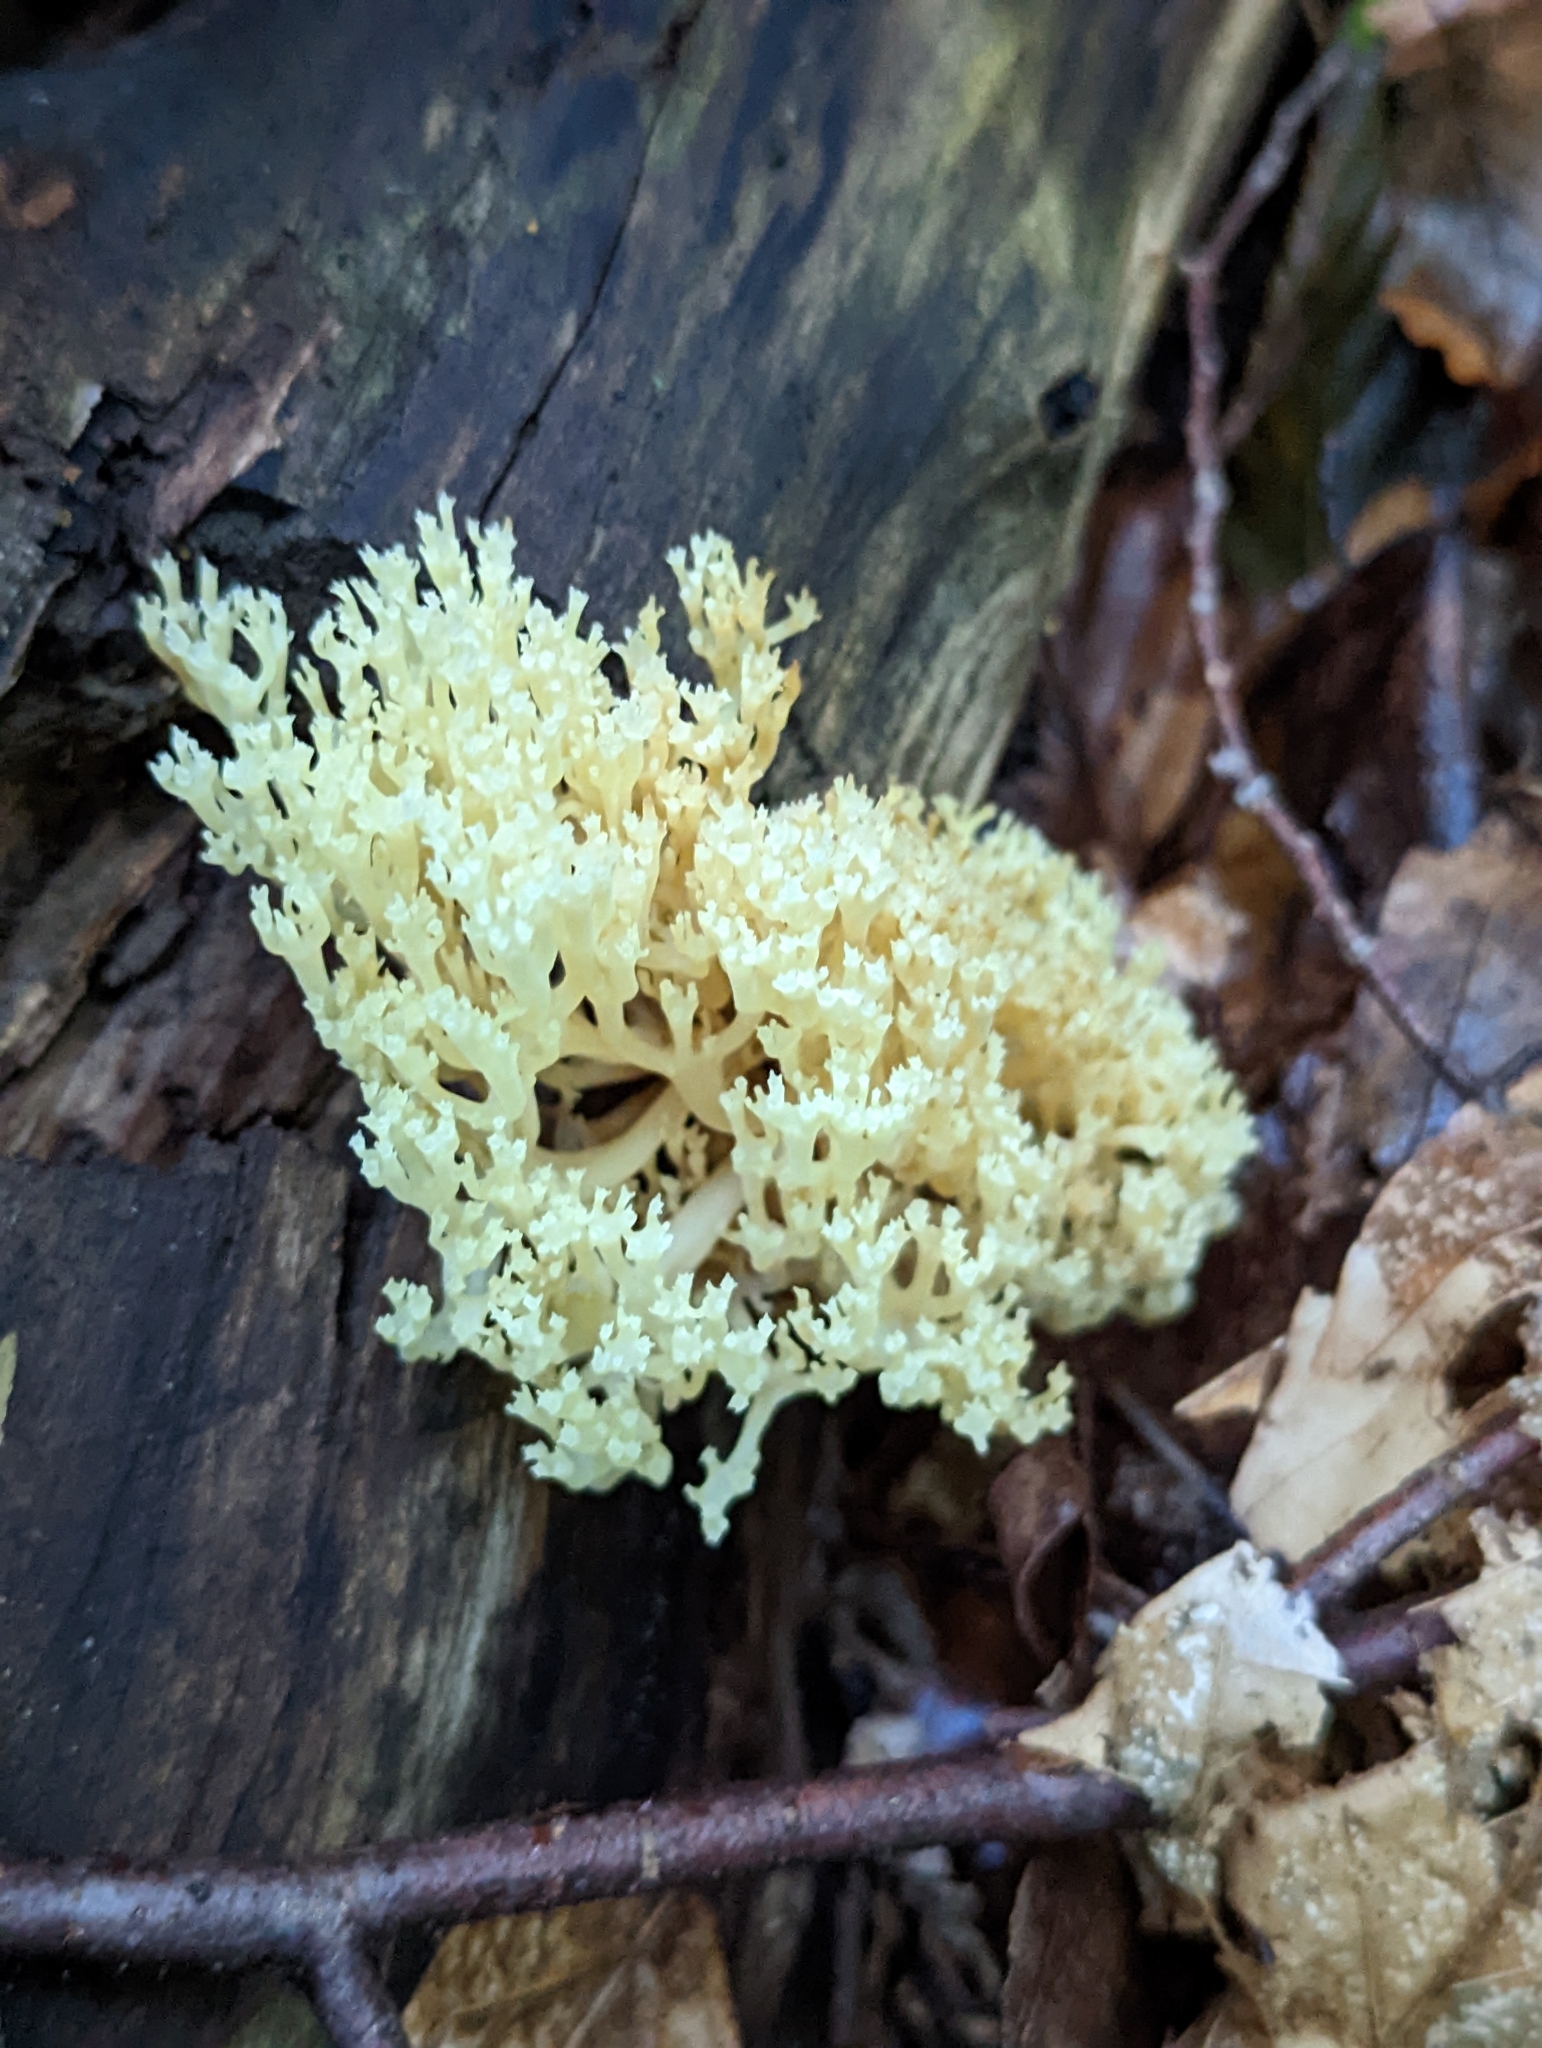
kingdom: Fungi
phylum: Basidiomycota
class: Agaricomycetes
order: Russulales
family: Auriscalpiaceae
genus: Artomyces
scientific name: Artomyces pyxidatus
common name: Crown-tipped coral fungus
